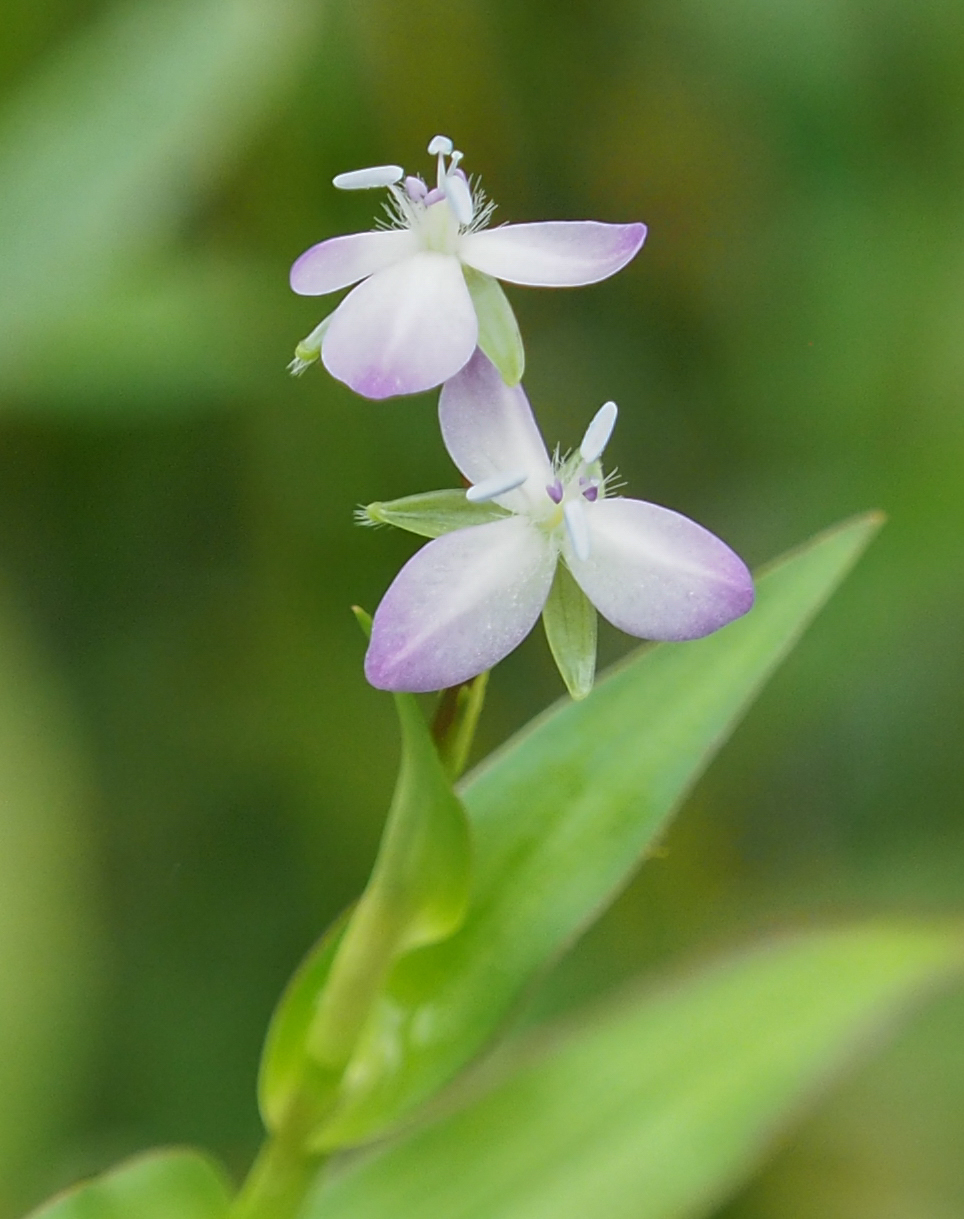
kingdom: Plantae
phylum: Tracheophyta
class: Liliopsida
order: Commelinales
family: Commelinaceae
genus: Murdannia
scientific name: Murdannia keisak
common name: Wartremoving herb
